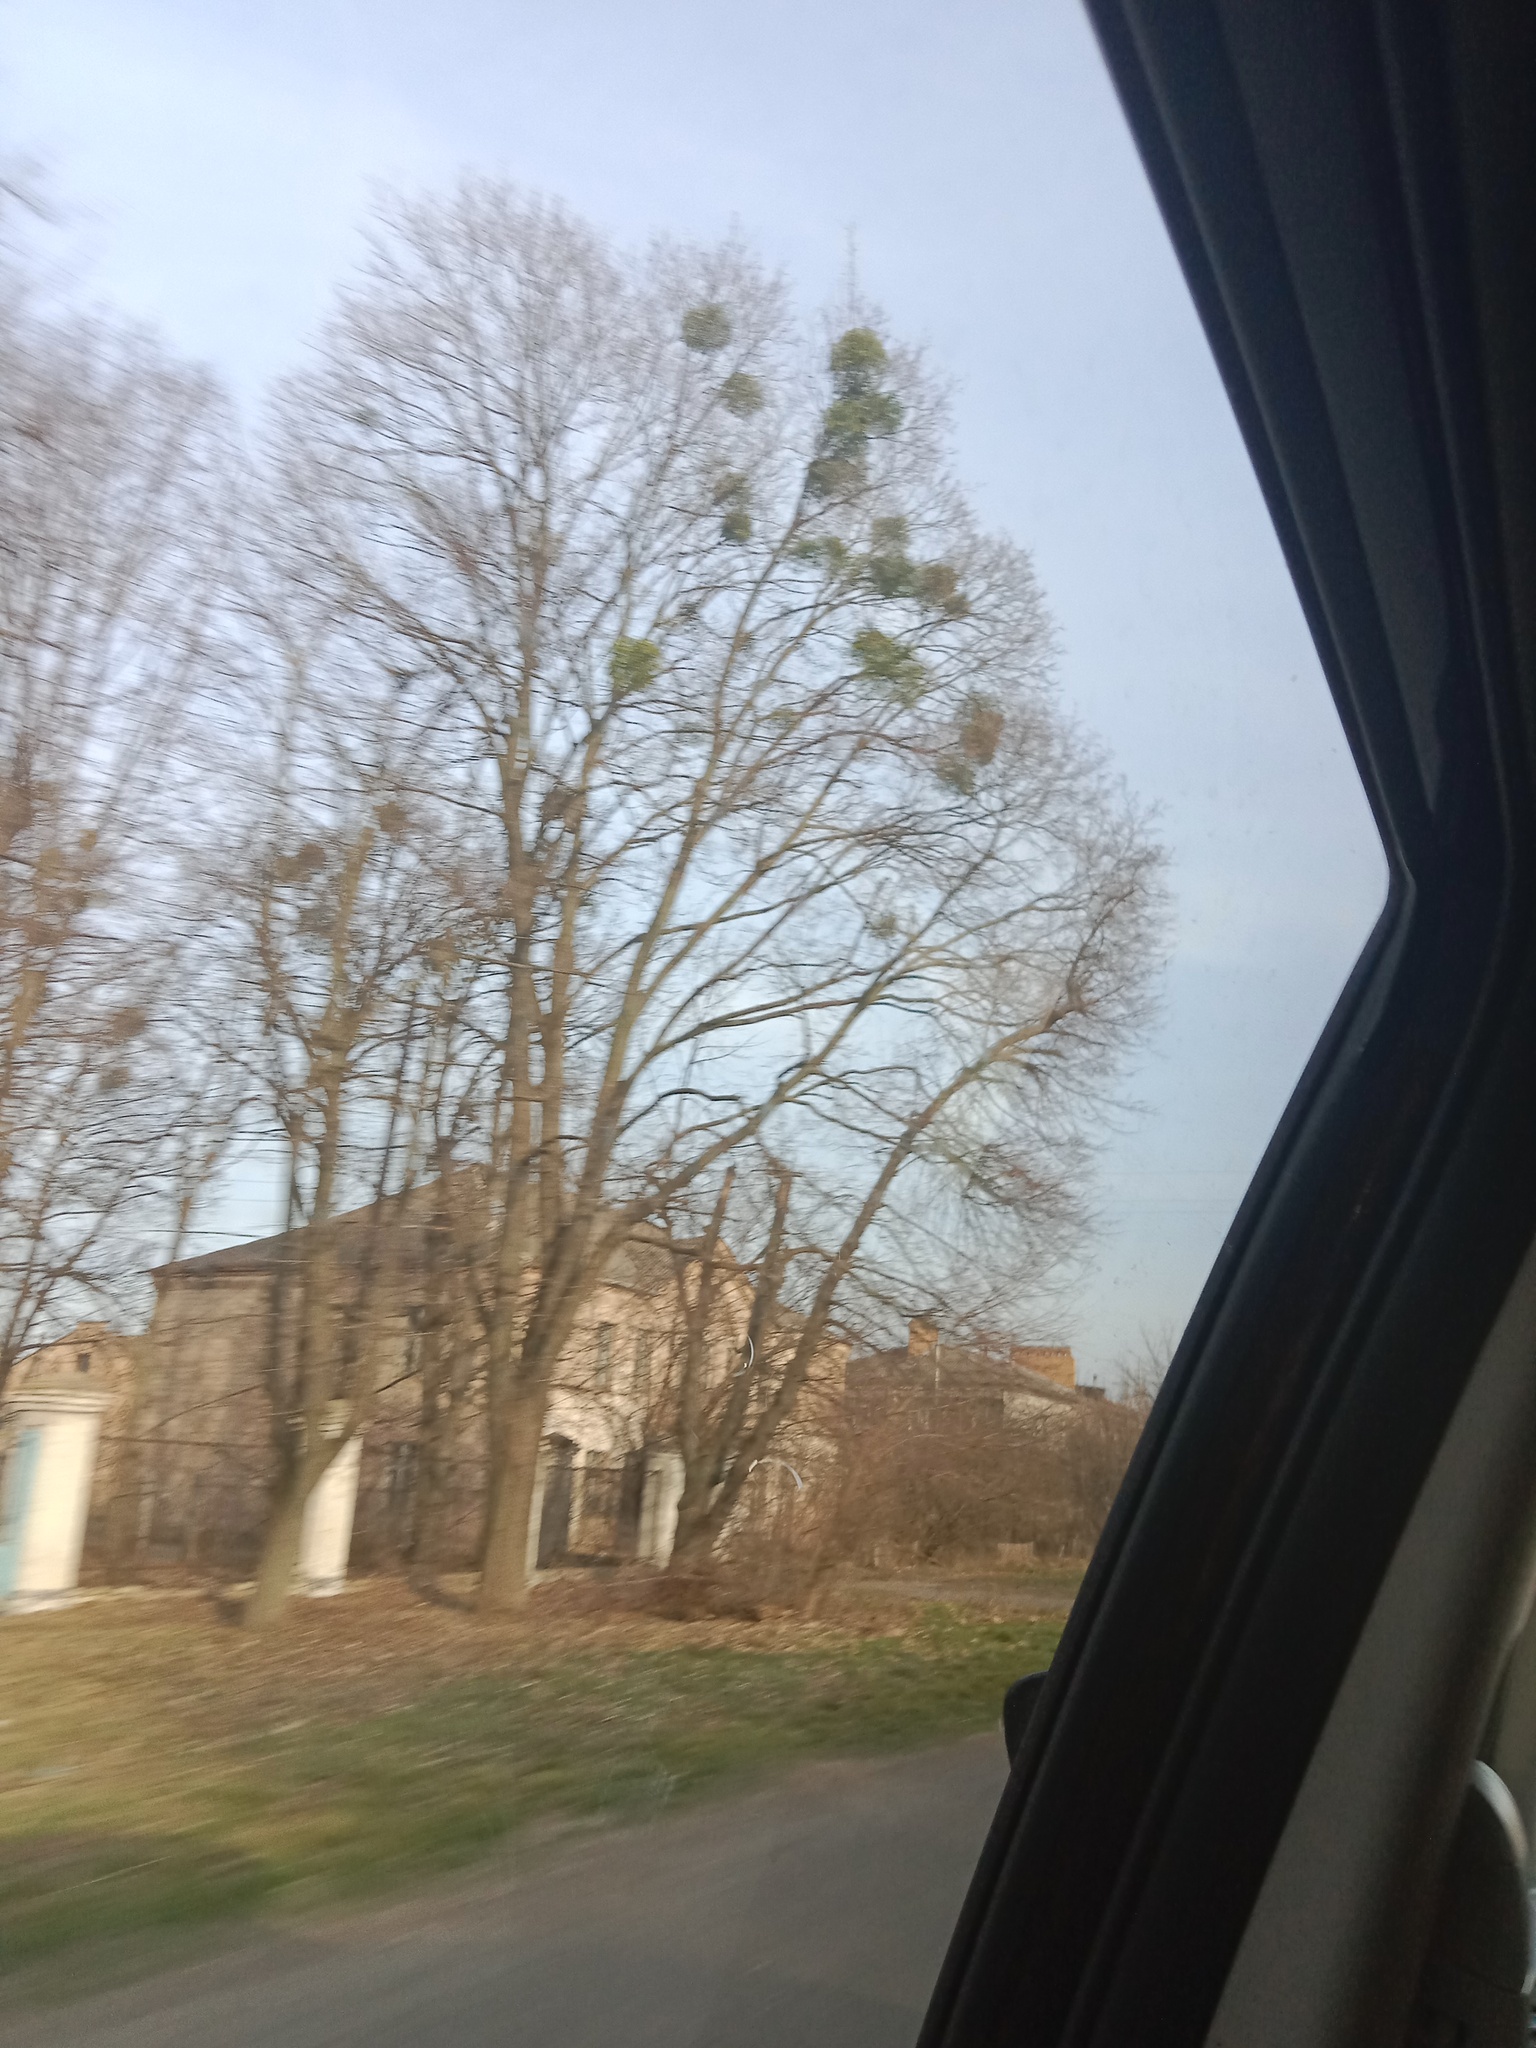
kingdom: Plantae
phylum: Tracheophyta
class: Magnoliopsida
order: Santalales
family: Viscaceae
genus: Viscum
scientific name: Viscum album
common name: Mistletoe
